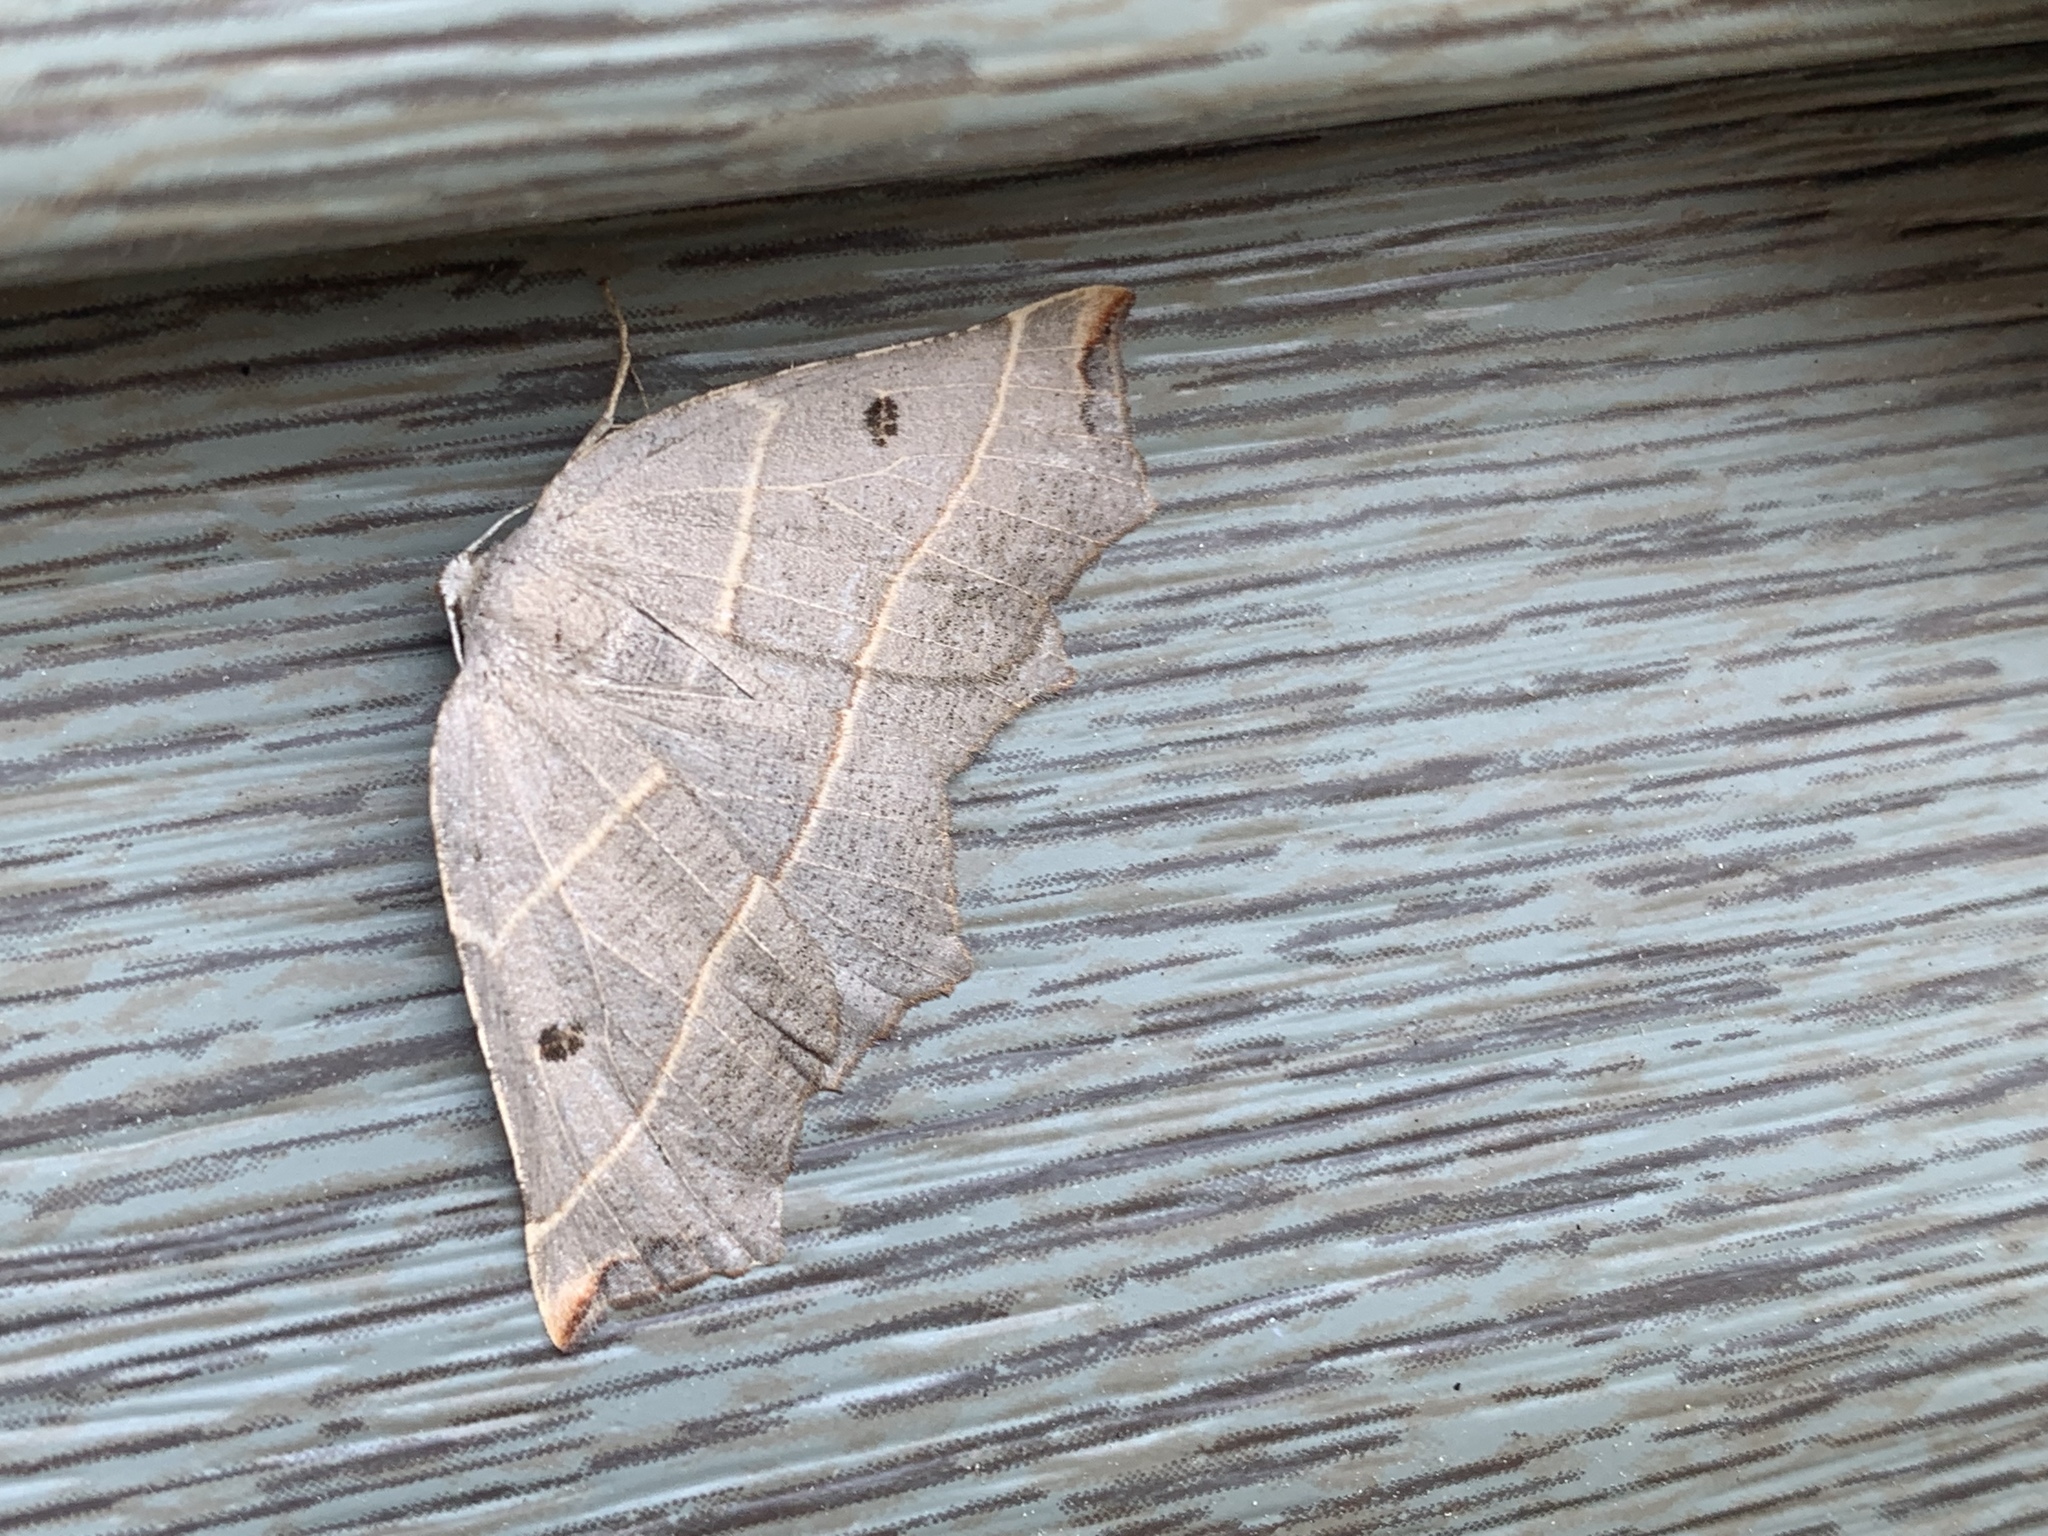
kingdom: Animalia
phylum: Arthropoda
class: Insecta
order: Lepidoptera
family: Geometridae
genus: Metanema
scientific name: Metanema inatomaria
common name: Pale metanema
